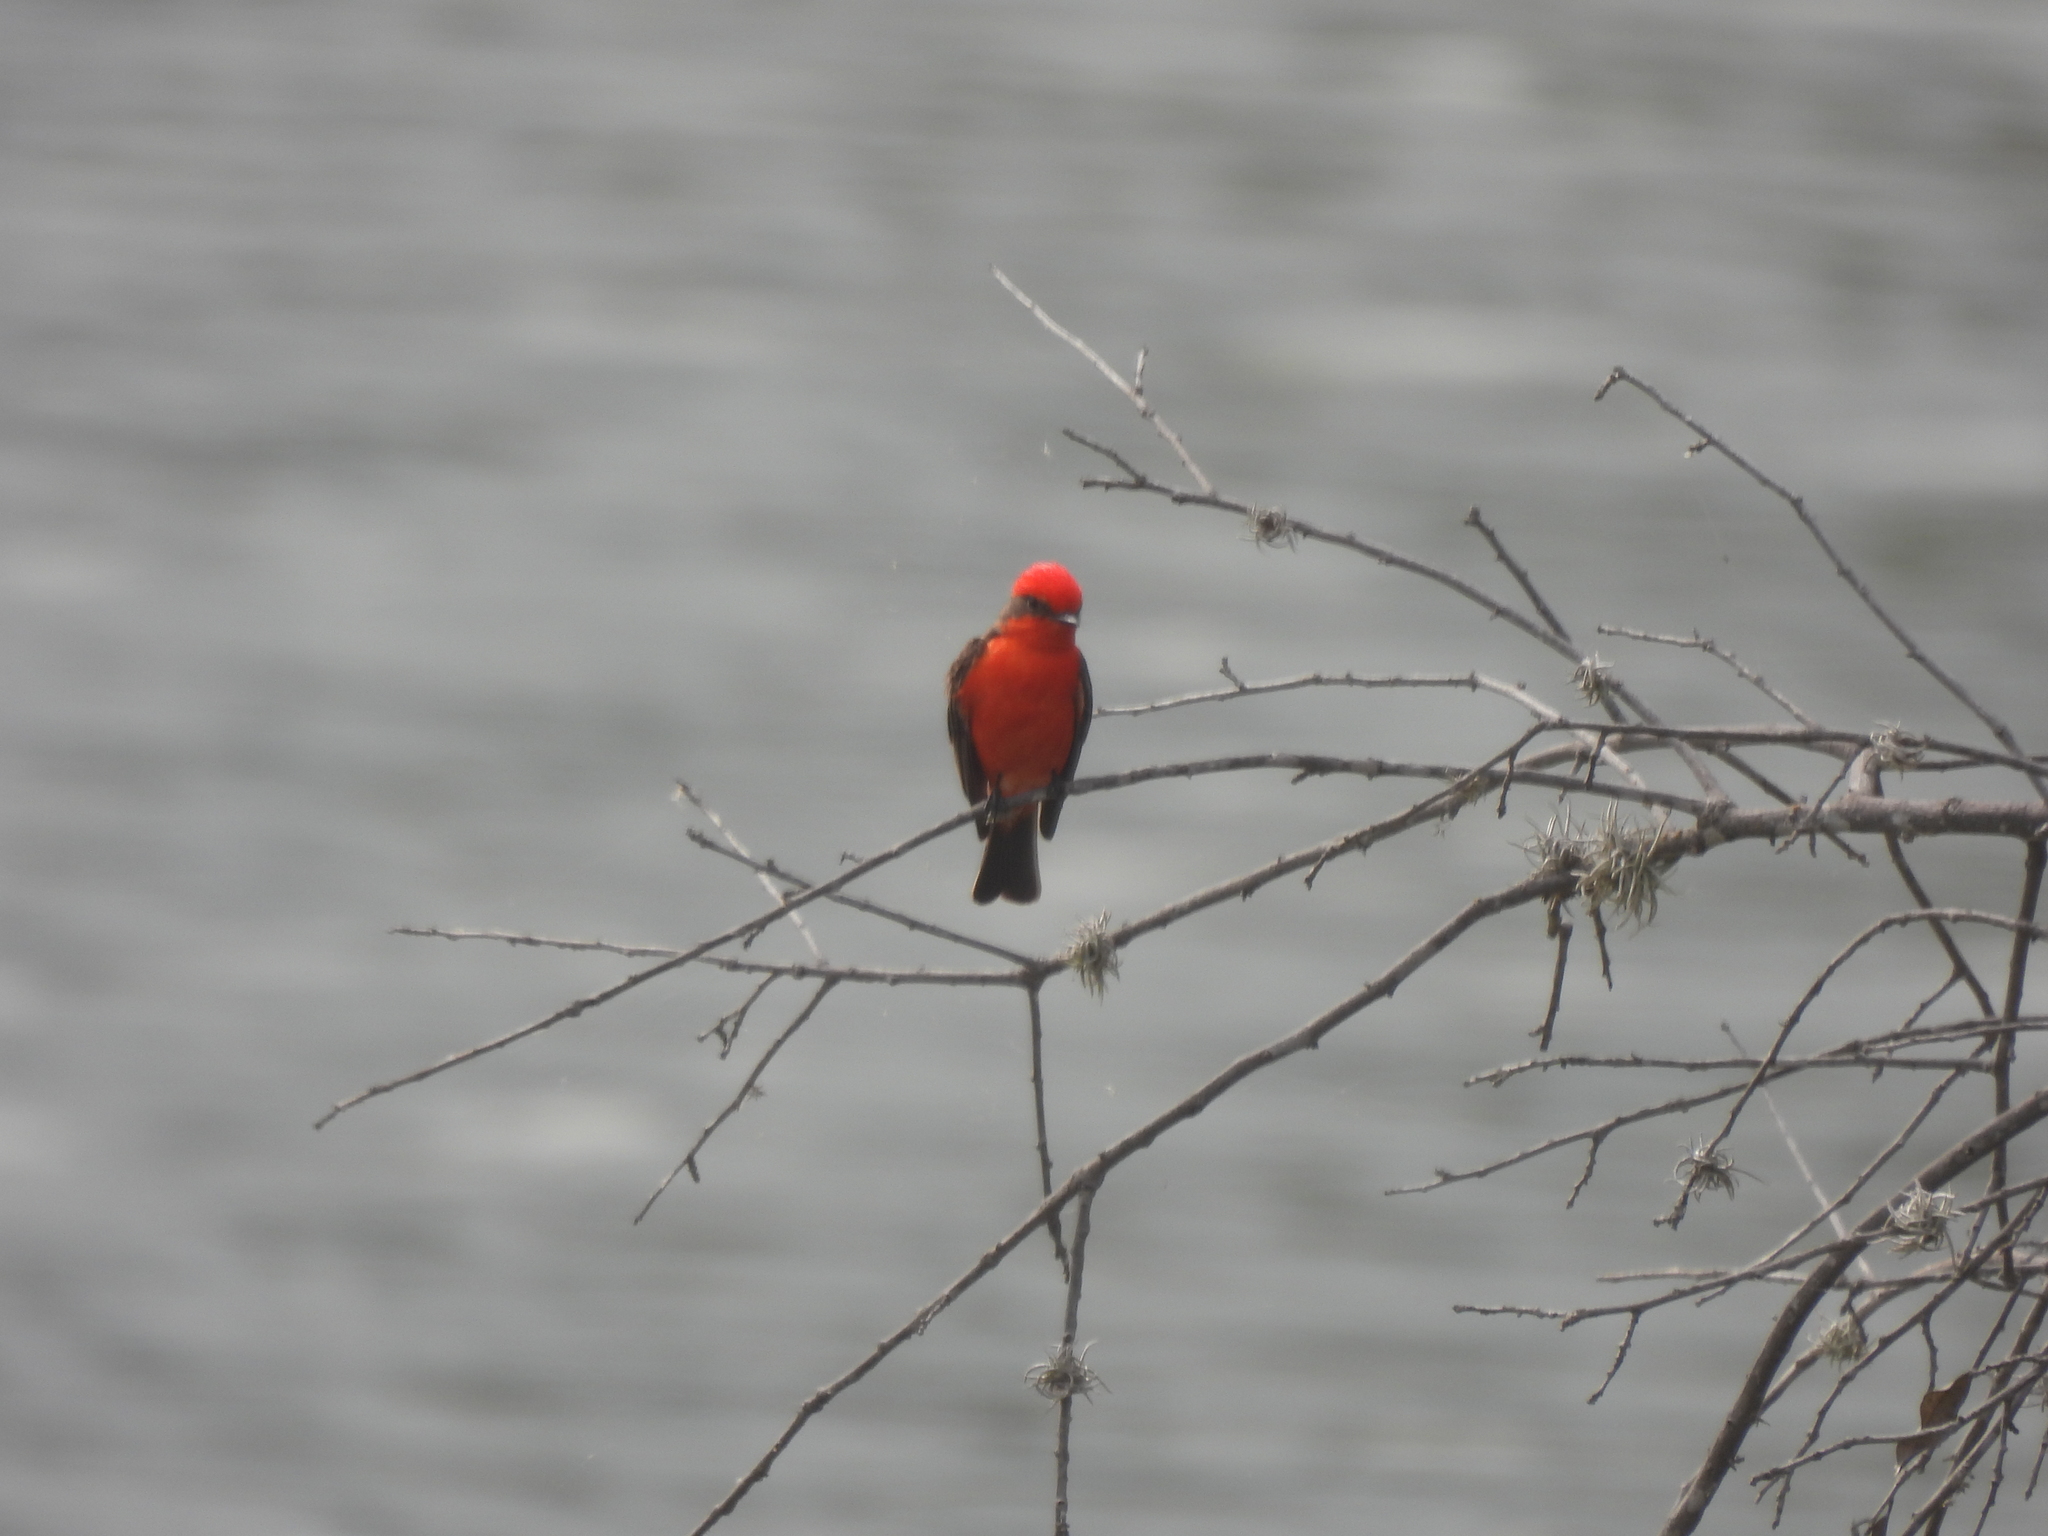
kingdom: Animalia
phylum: Chordata
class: Aves
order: Passeriformes
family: Tyrannidae
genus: Pyrocephalus
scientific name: Pyrocephalus rubinus
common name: Vermilion flycatcher
